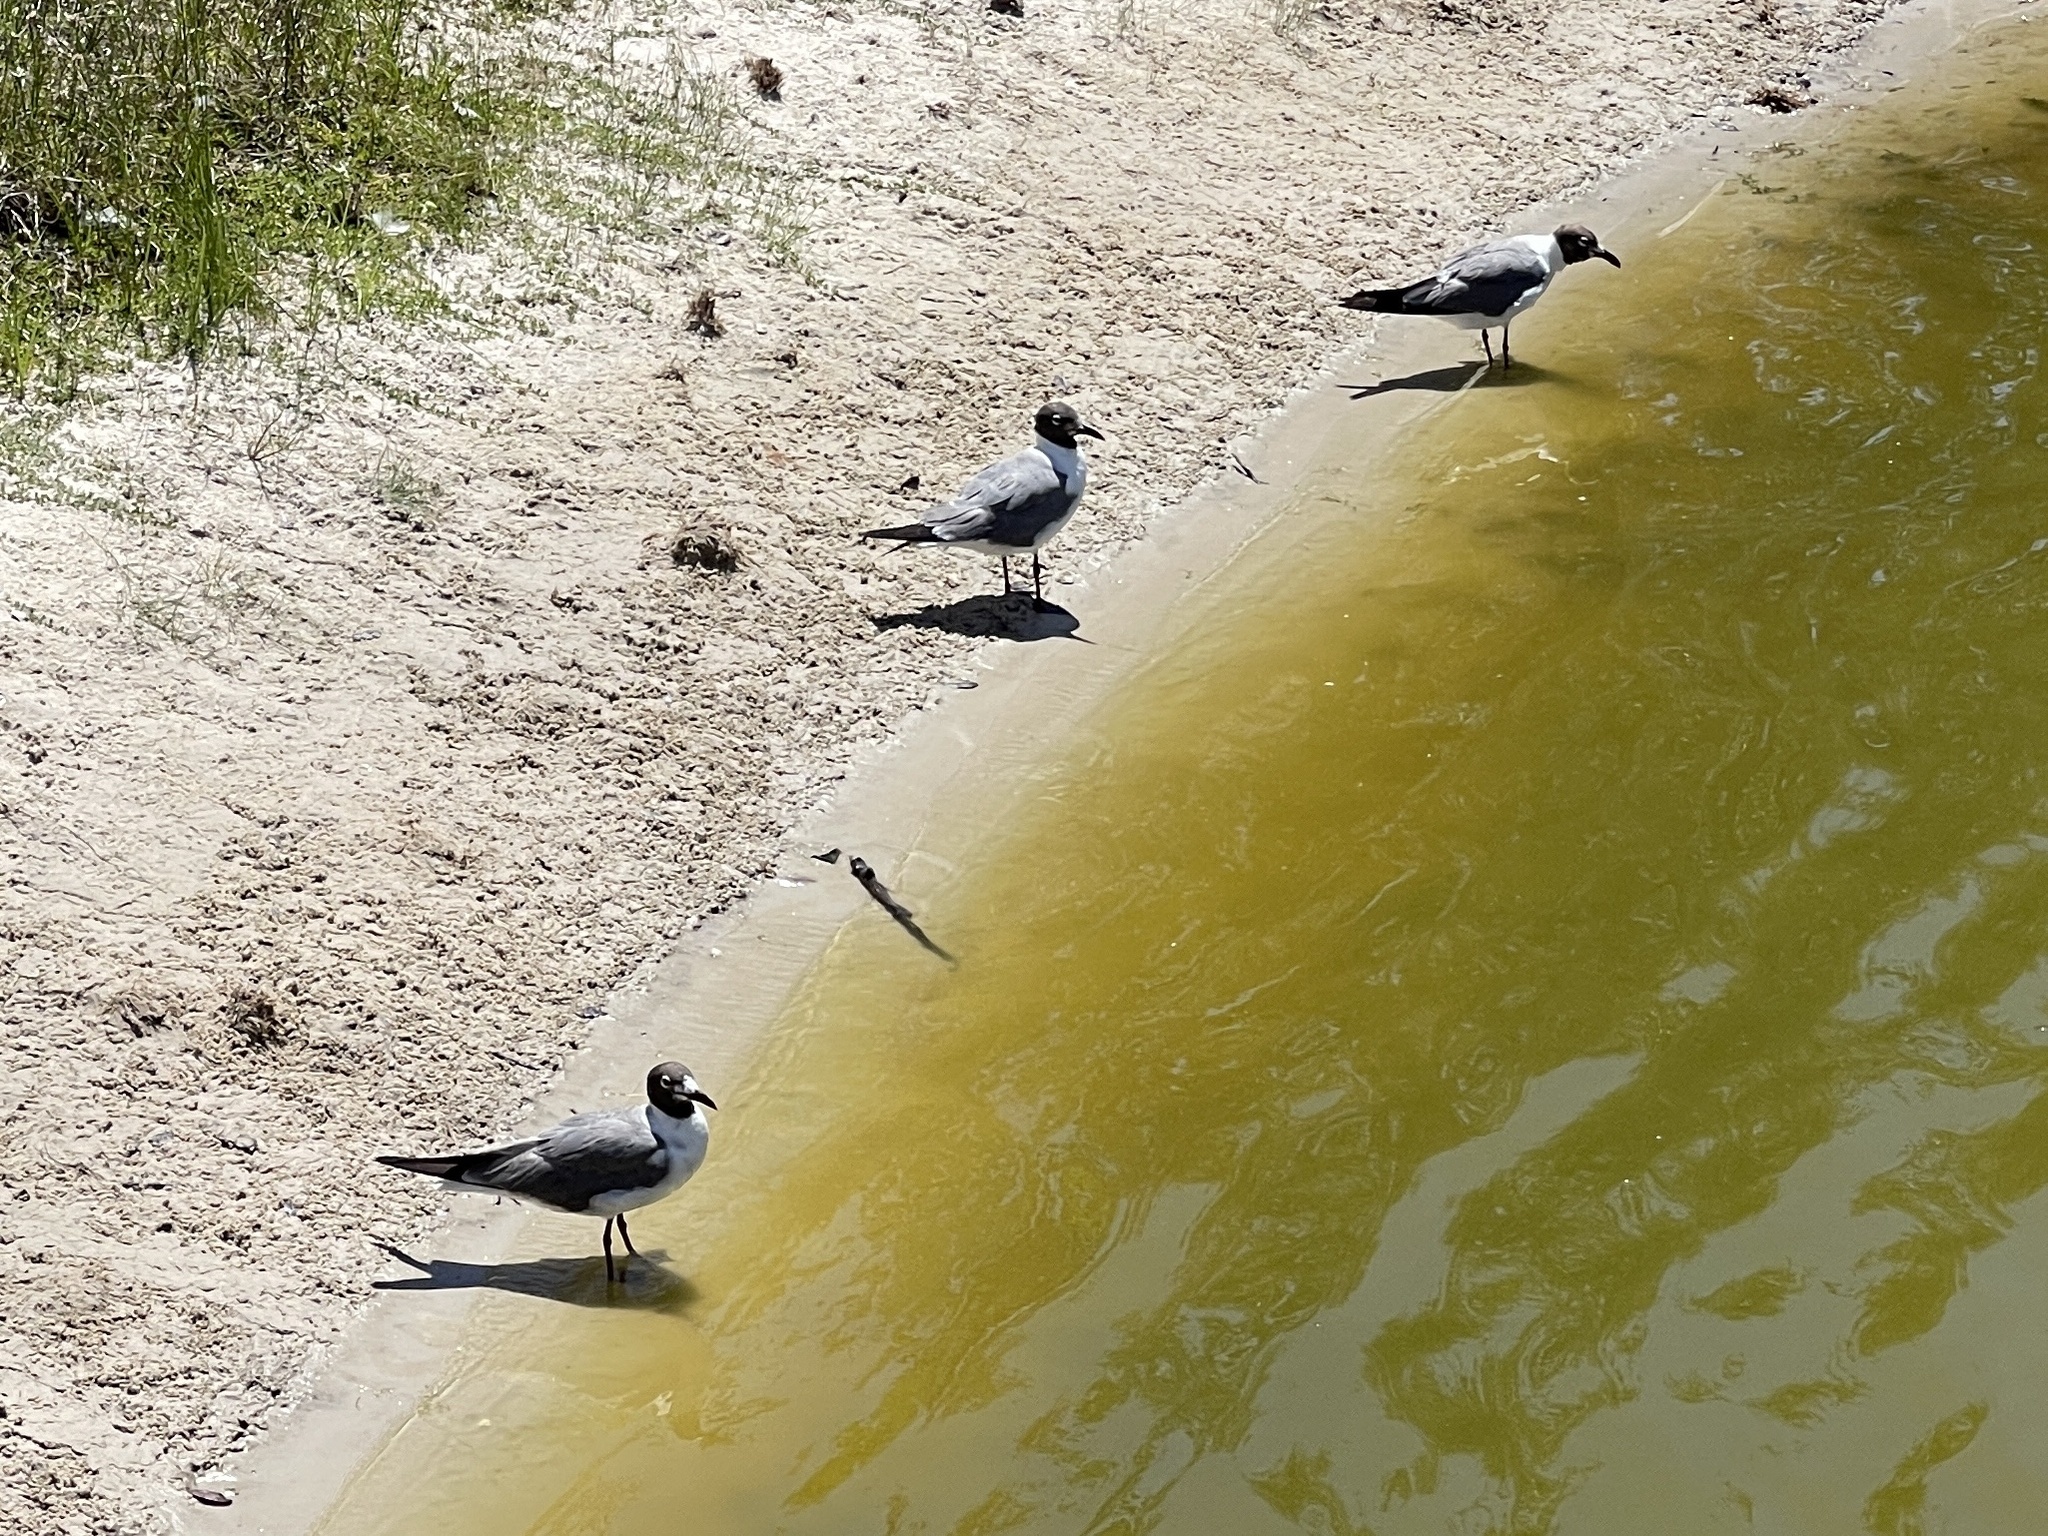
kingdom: Animalia
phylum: Chordata
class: Aves
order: Charadriiformes
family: Laridae
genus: Leucophaeus
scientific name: Leucophaeus atricilla
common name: Laughing gull
